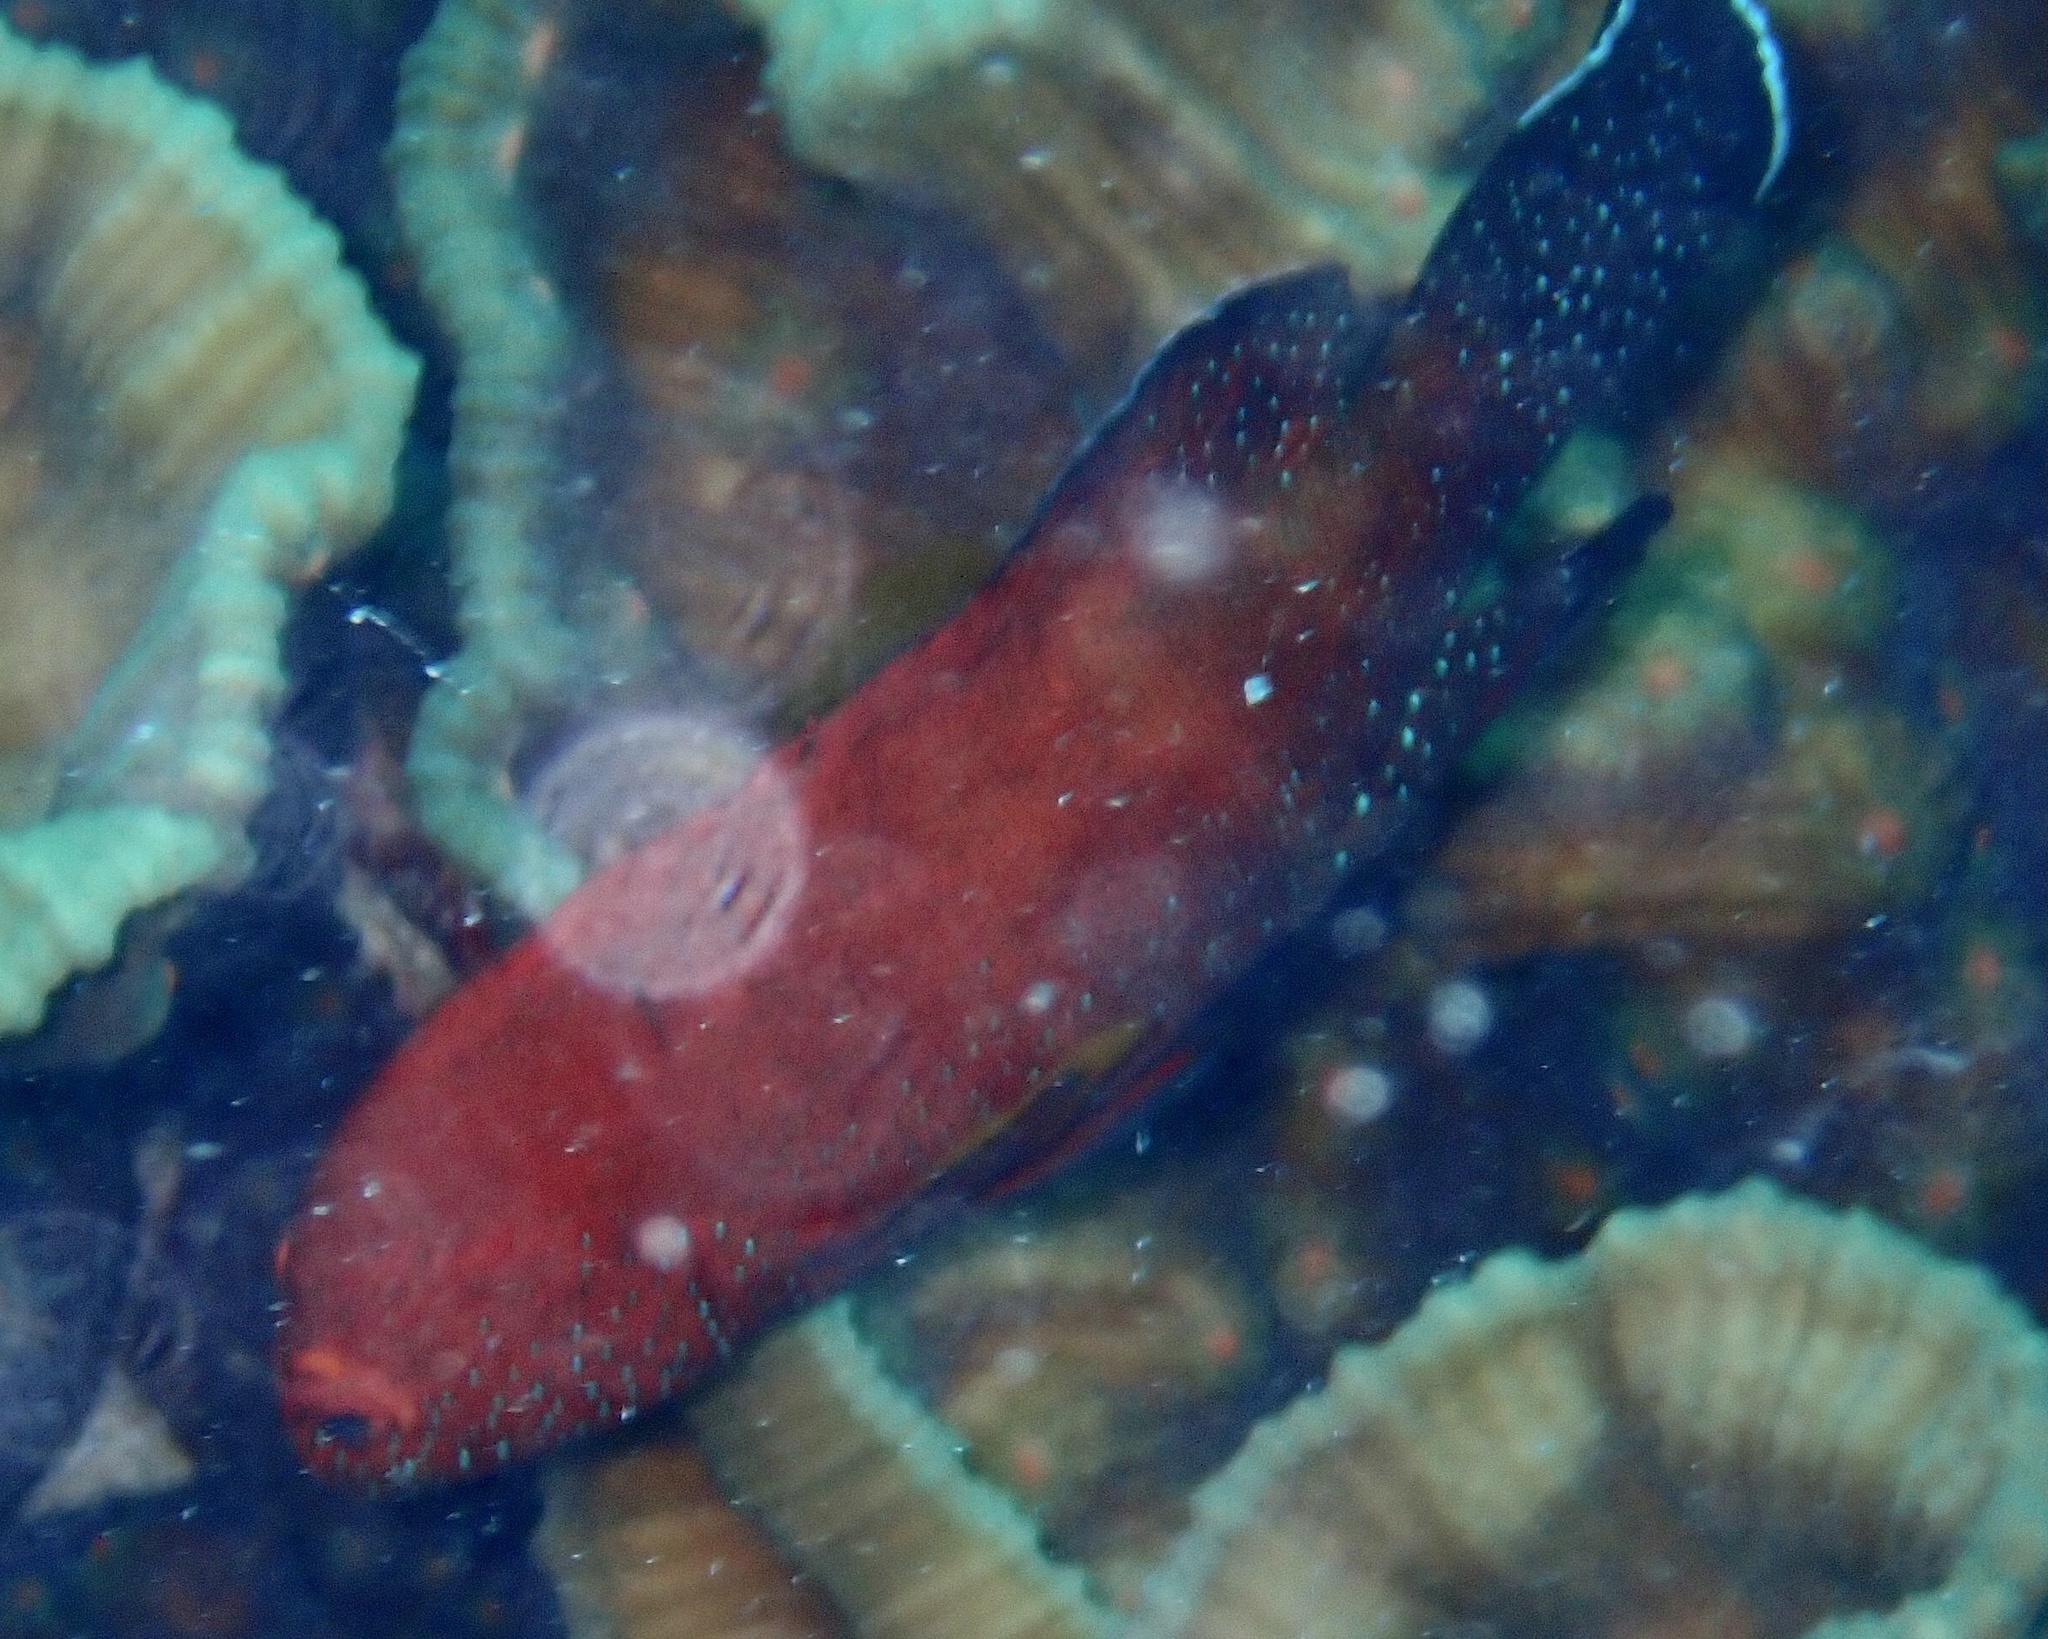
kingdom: Animalia
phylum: Chordata
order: Perciformes
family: Serranidae
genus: Cephalopholis
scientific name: Cephalopholis hemistiktos
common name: Halfspotted hind
